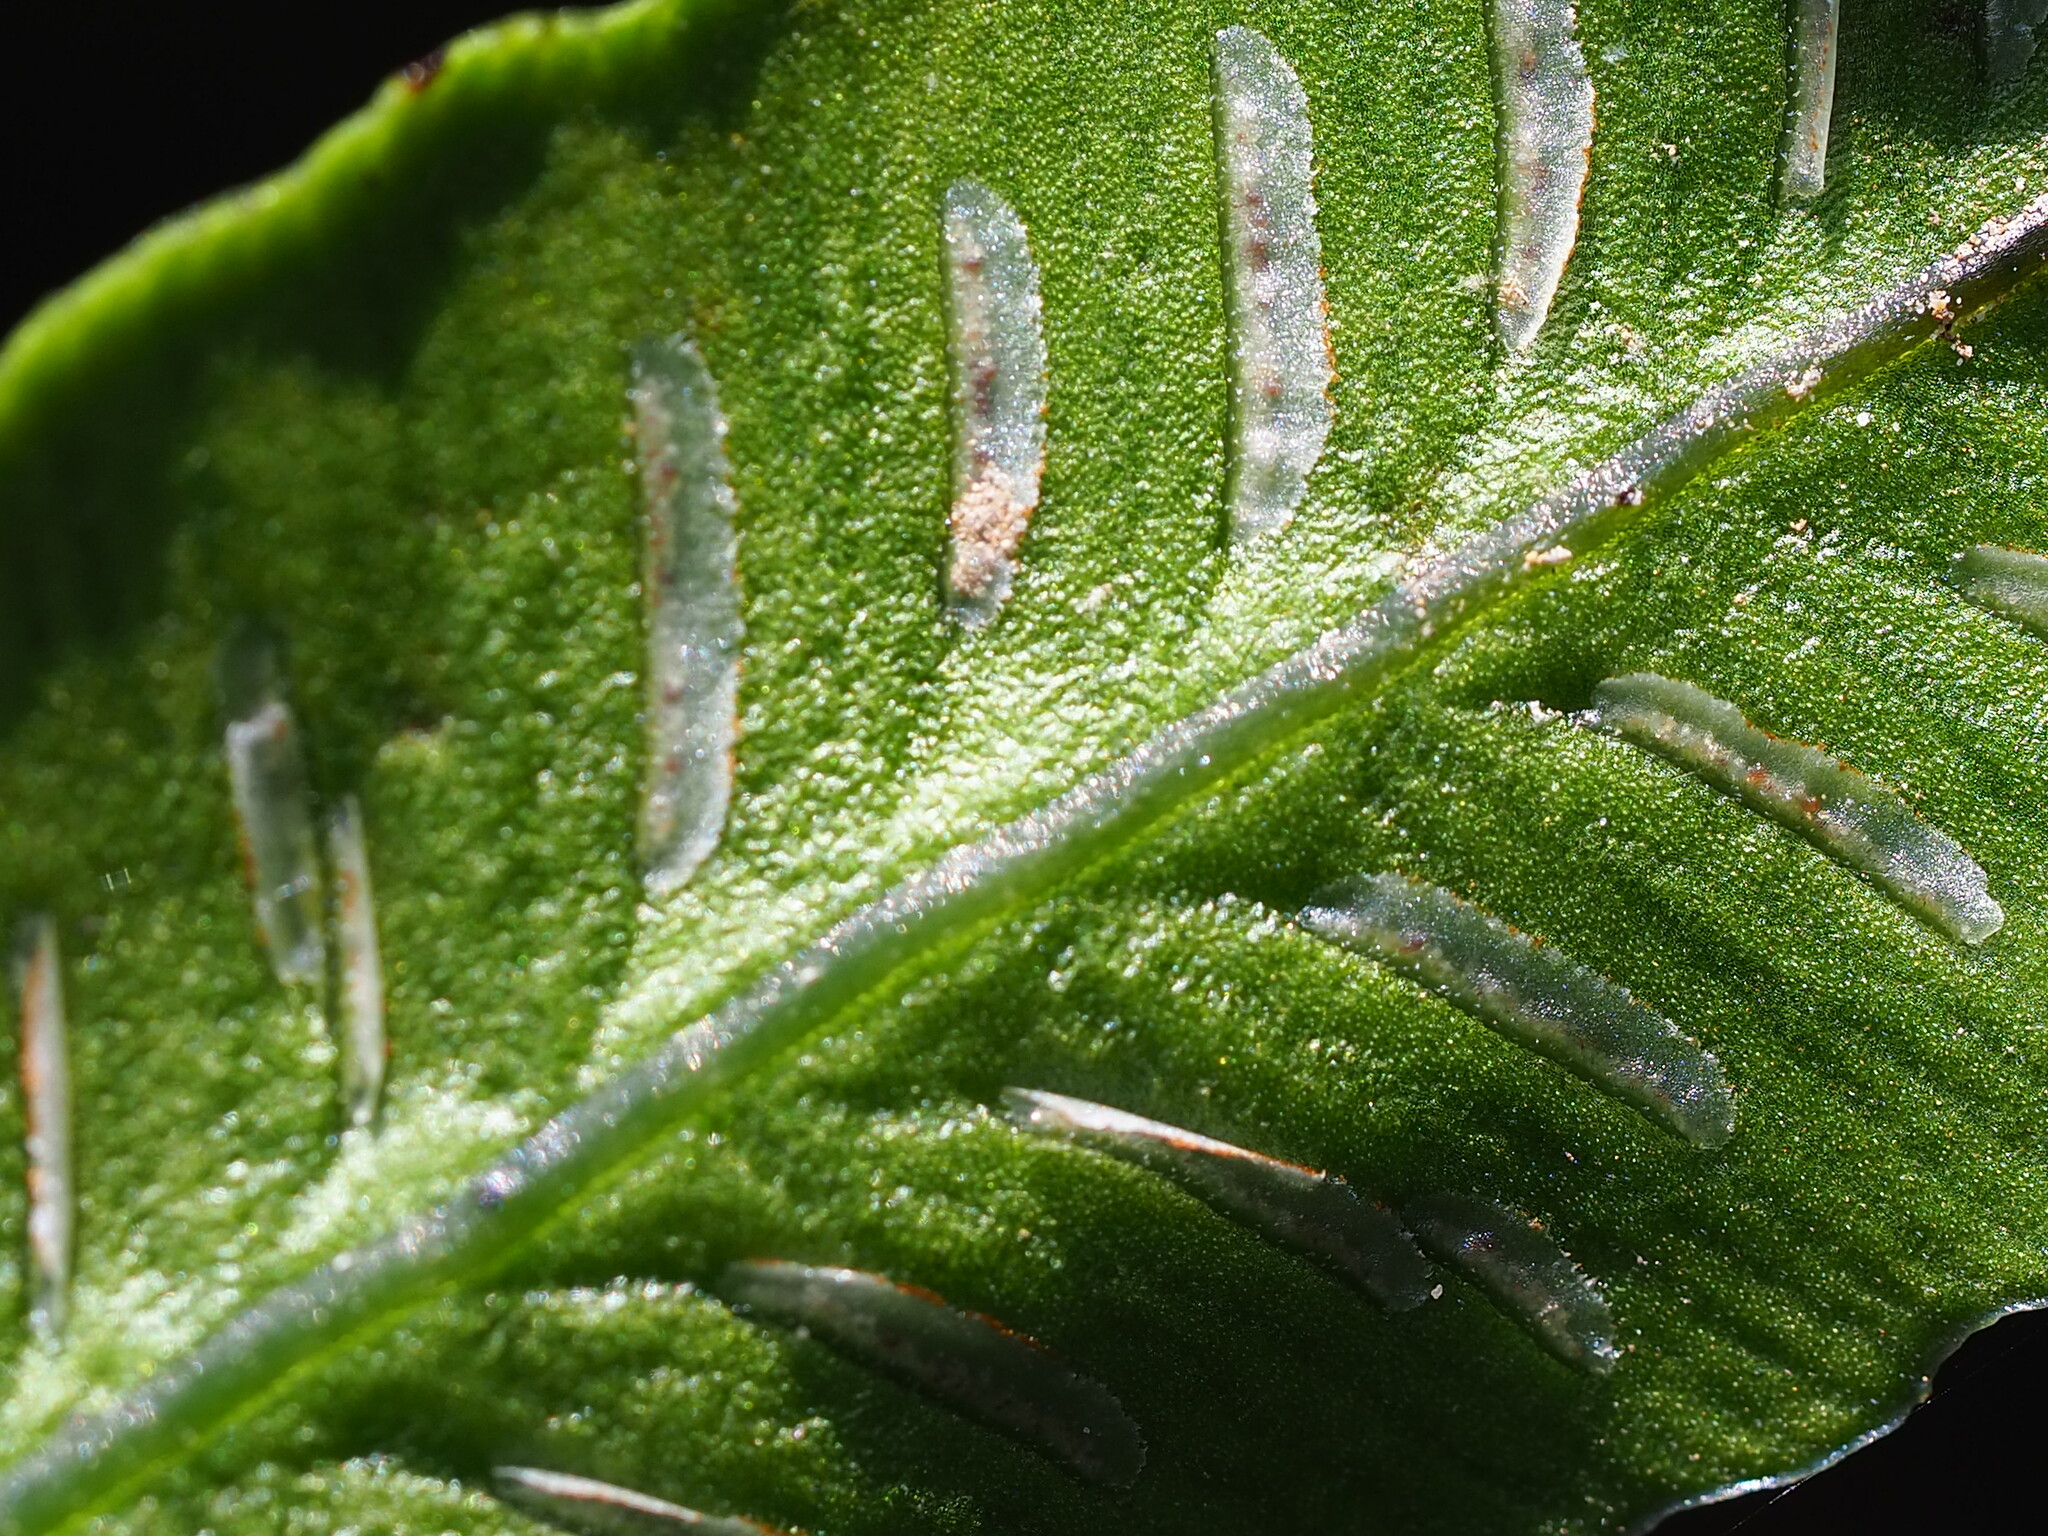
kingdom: Plantae
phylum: Tracheophyta
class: Polypodiopsida
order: Polypodiales
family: Athyriaceae
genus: Deparia
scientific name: Deparia lancea
